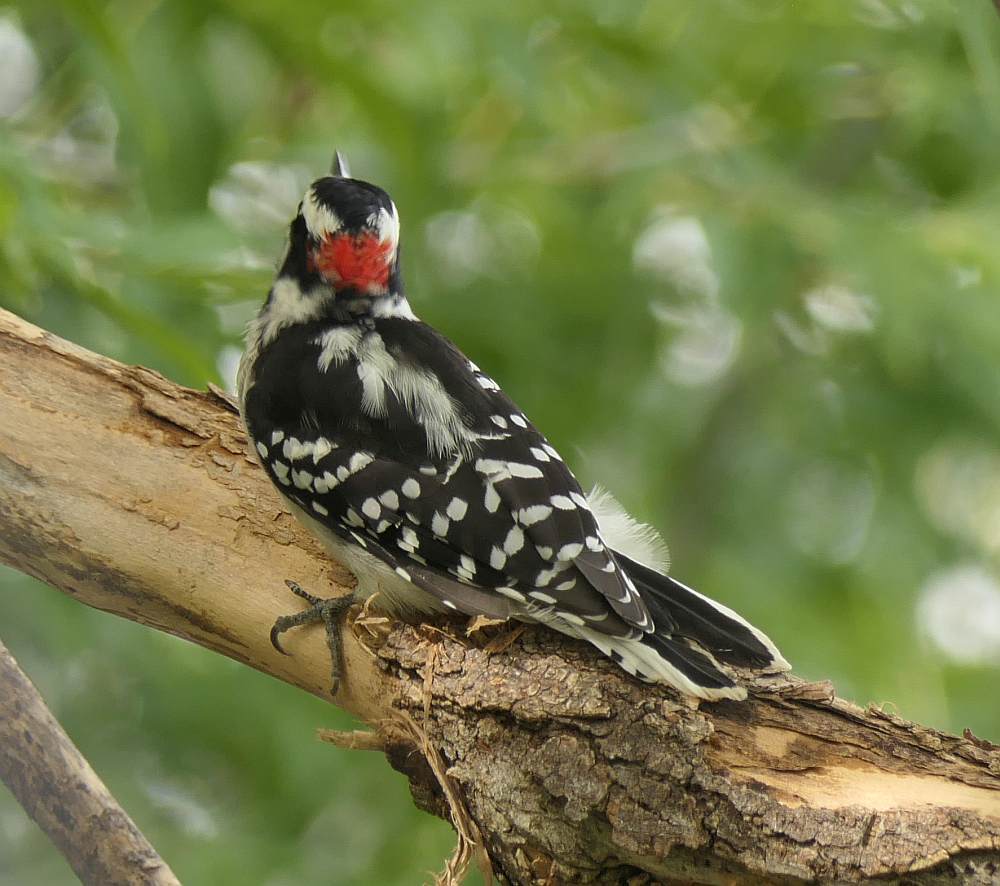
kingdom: Animalia
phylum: Chordata
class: Aves
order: Piciformes
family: Picidae
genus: Dryobates
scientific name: Dryobates pubescens
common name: Downy woodpecker
